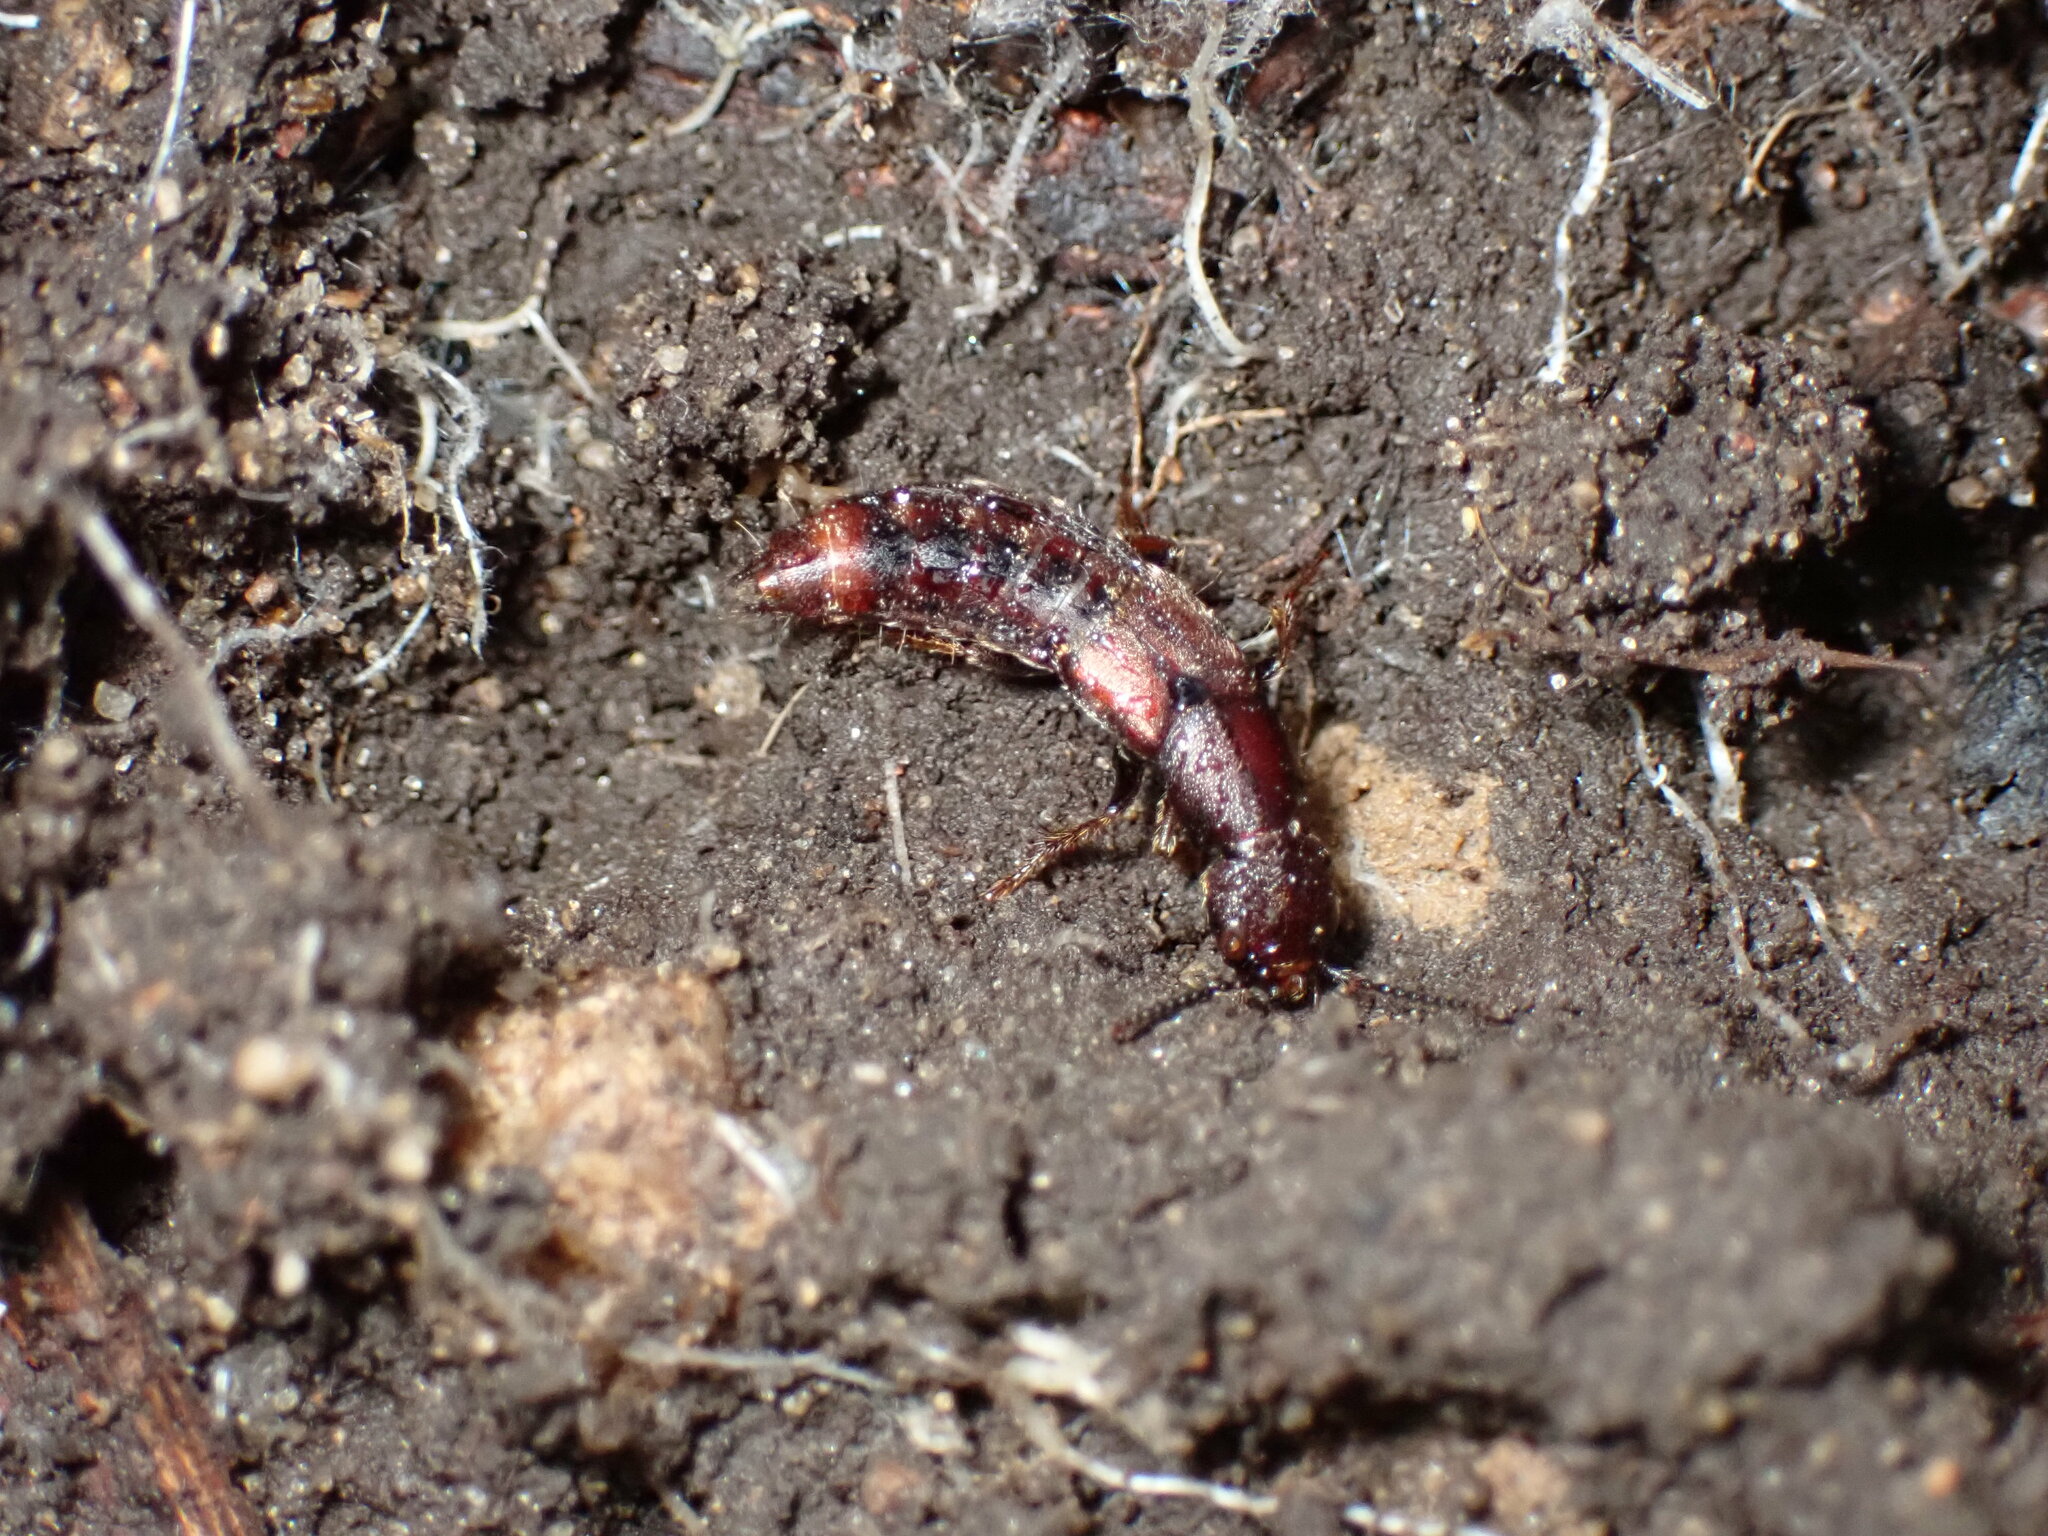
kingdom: Animalia
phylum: Arthropoda
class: Insecta
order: Coleoptera
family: Staphylinidae
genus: Platydracus
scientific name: Platydracus cinnamopterus
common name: Cinnamon rove beetle
